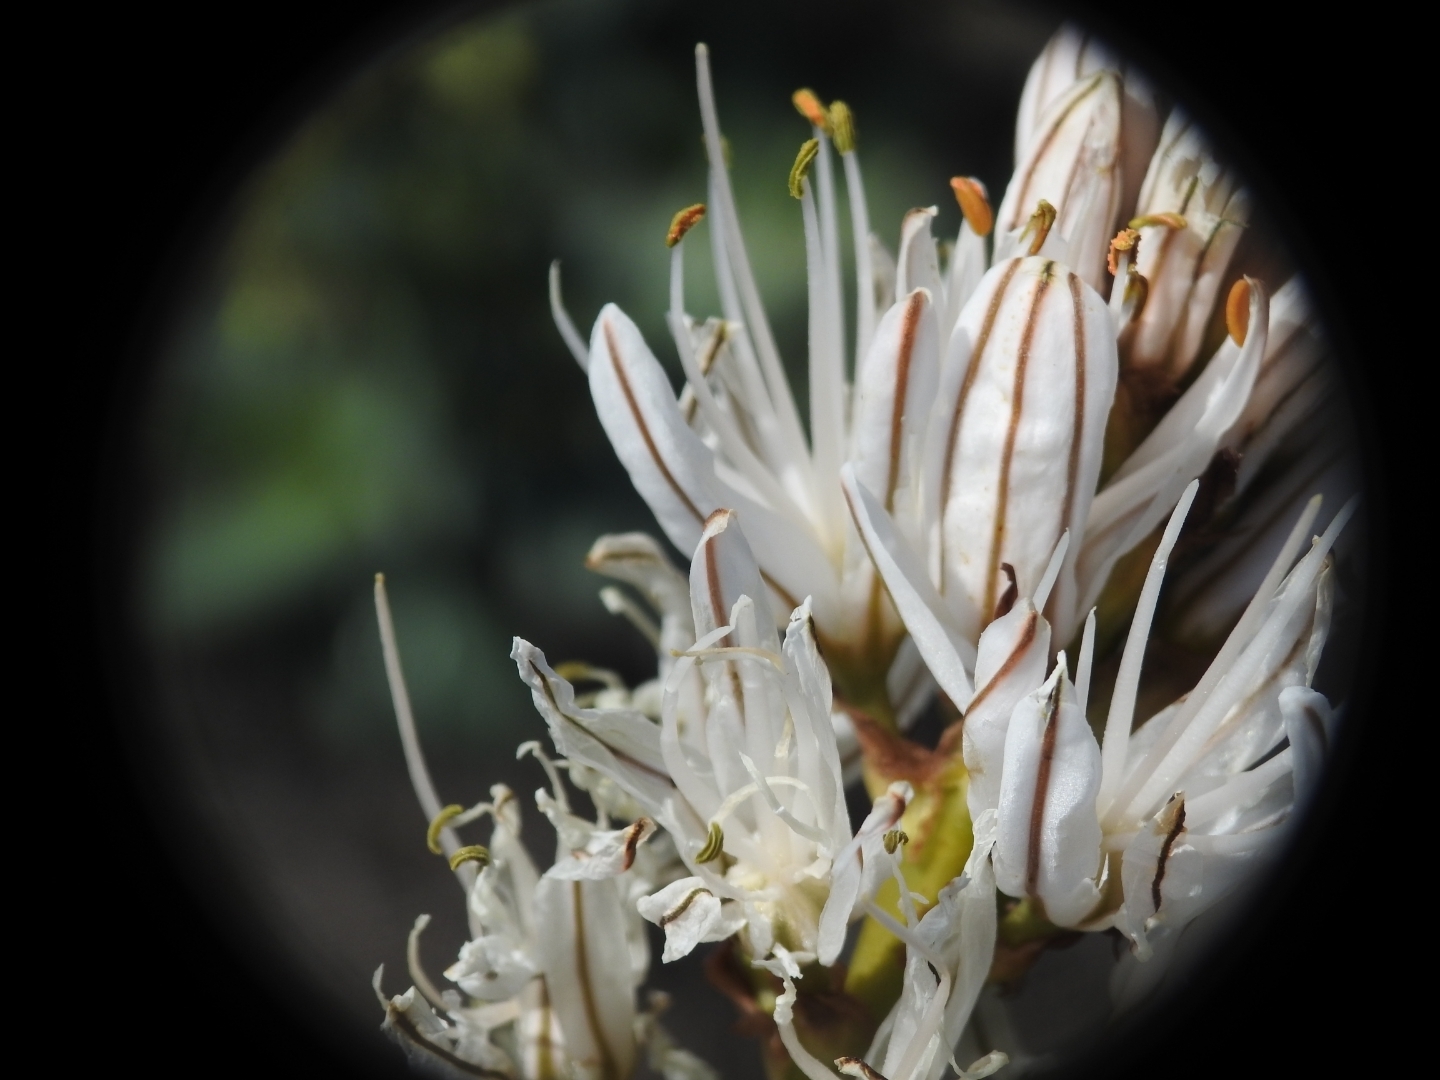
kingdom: Plantae
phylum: Tracheophyta
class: Liliopsida
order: Asparagales
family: Asphodelaceae
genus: Asphodelus
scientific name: Asphodelus ramosus
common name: Silverrod
